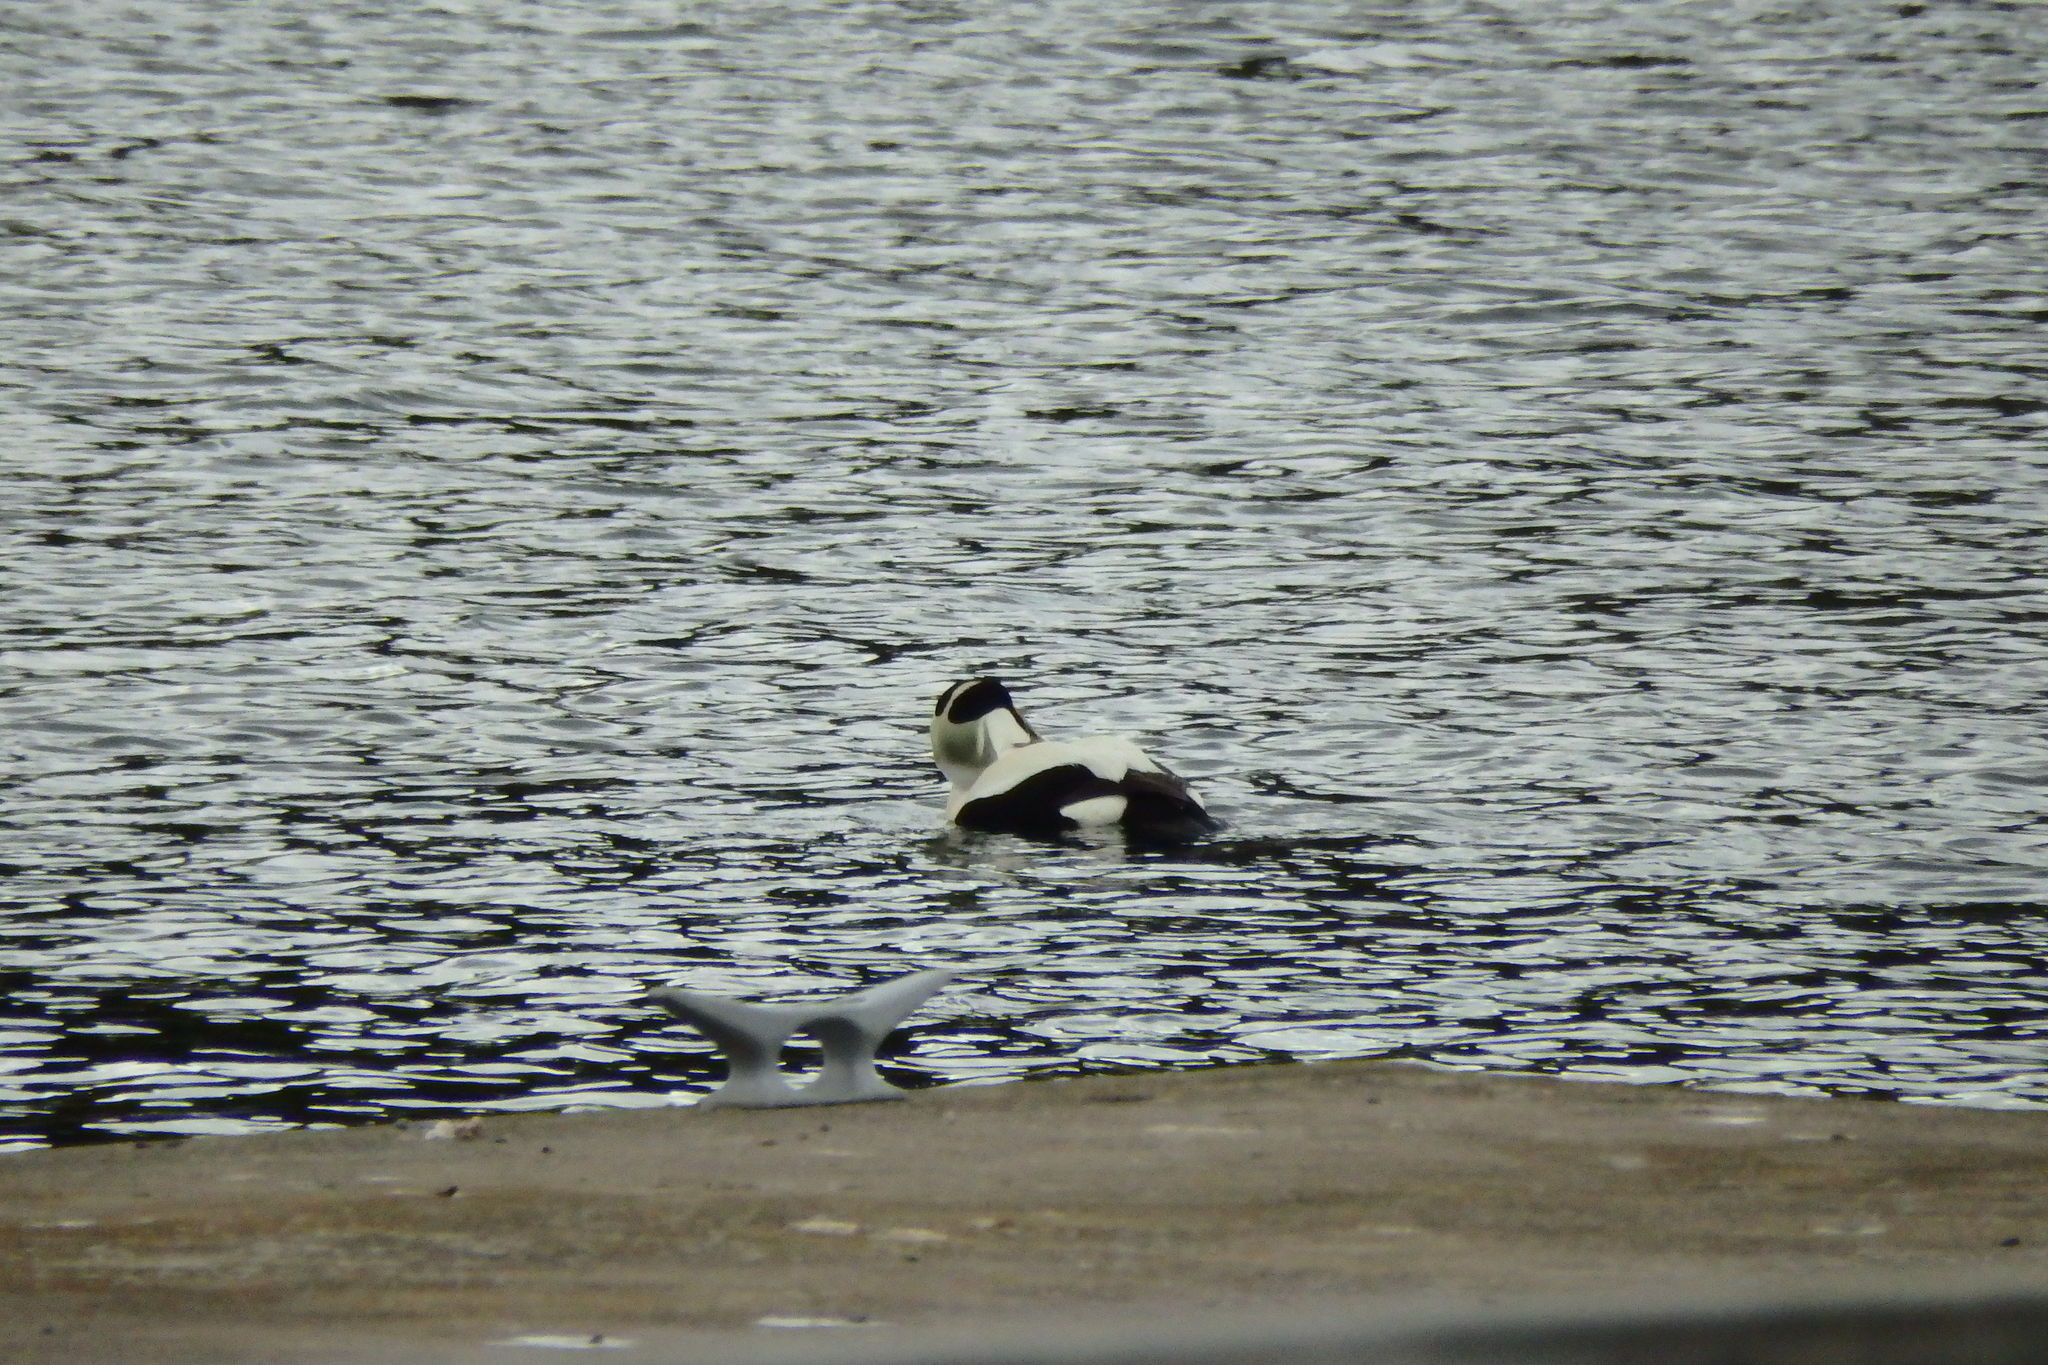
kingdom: Animalia
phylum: Chordata
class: Aves
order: Anseriformes
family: Anatidae
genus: Somateria
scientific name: Somateria mollissima
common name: Common eider
